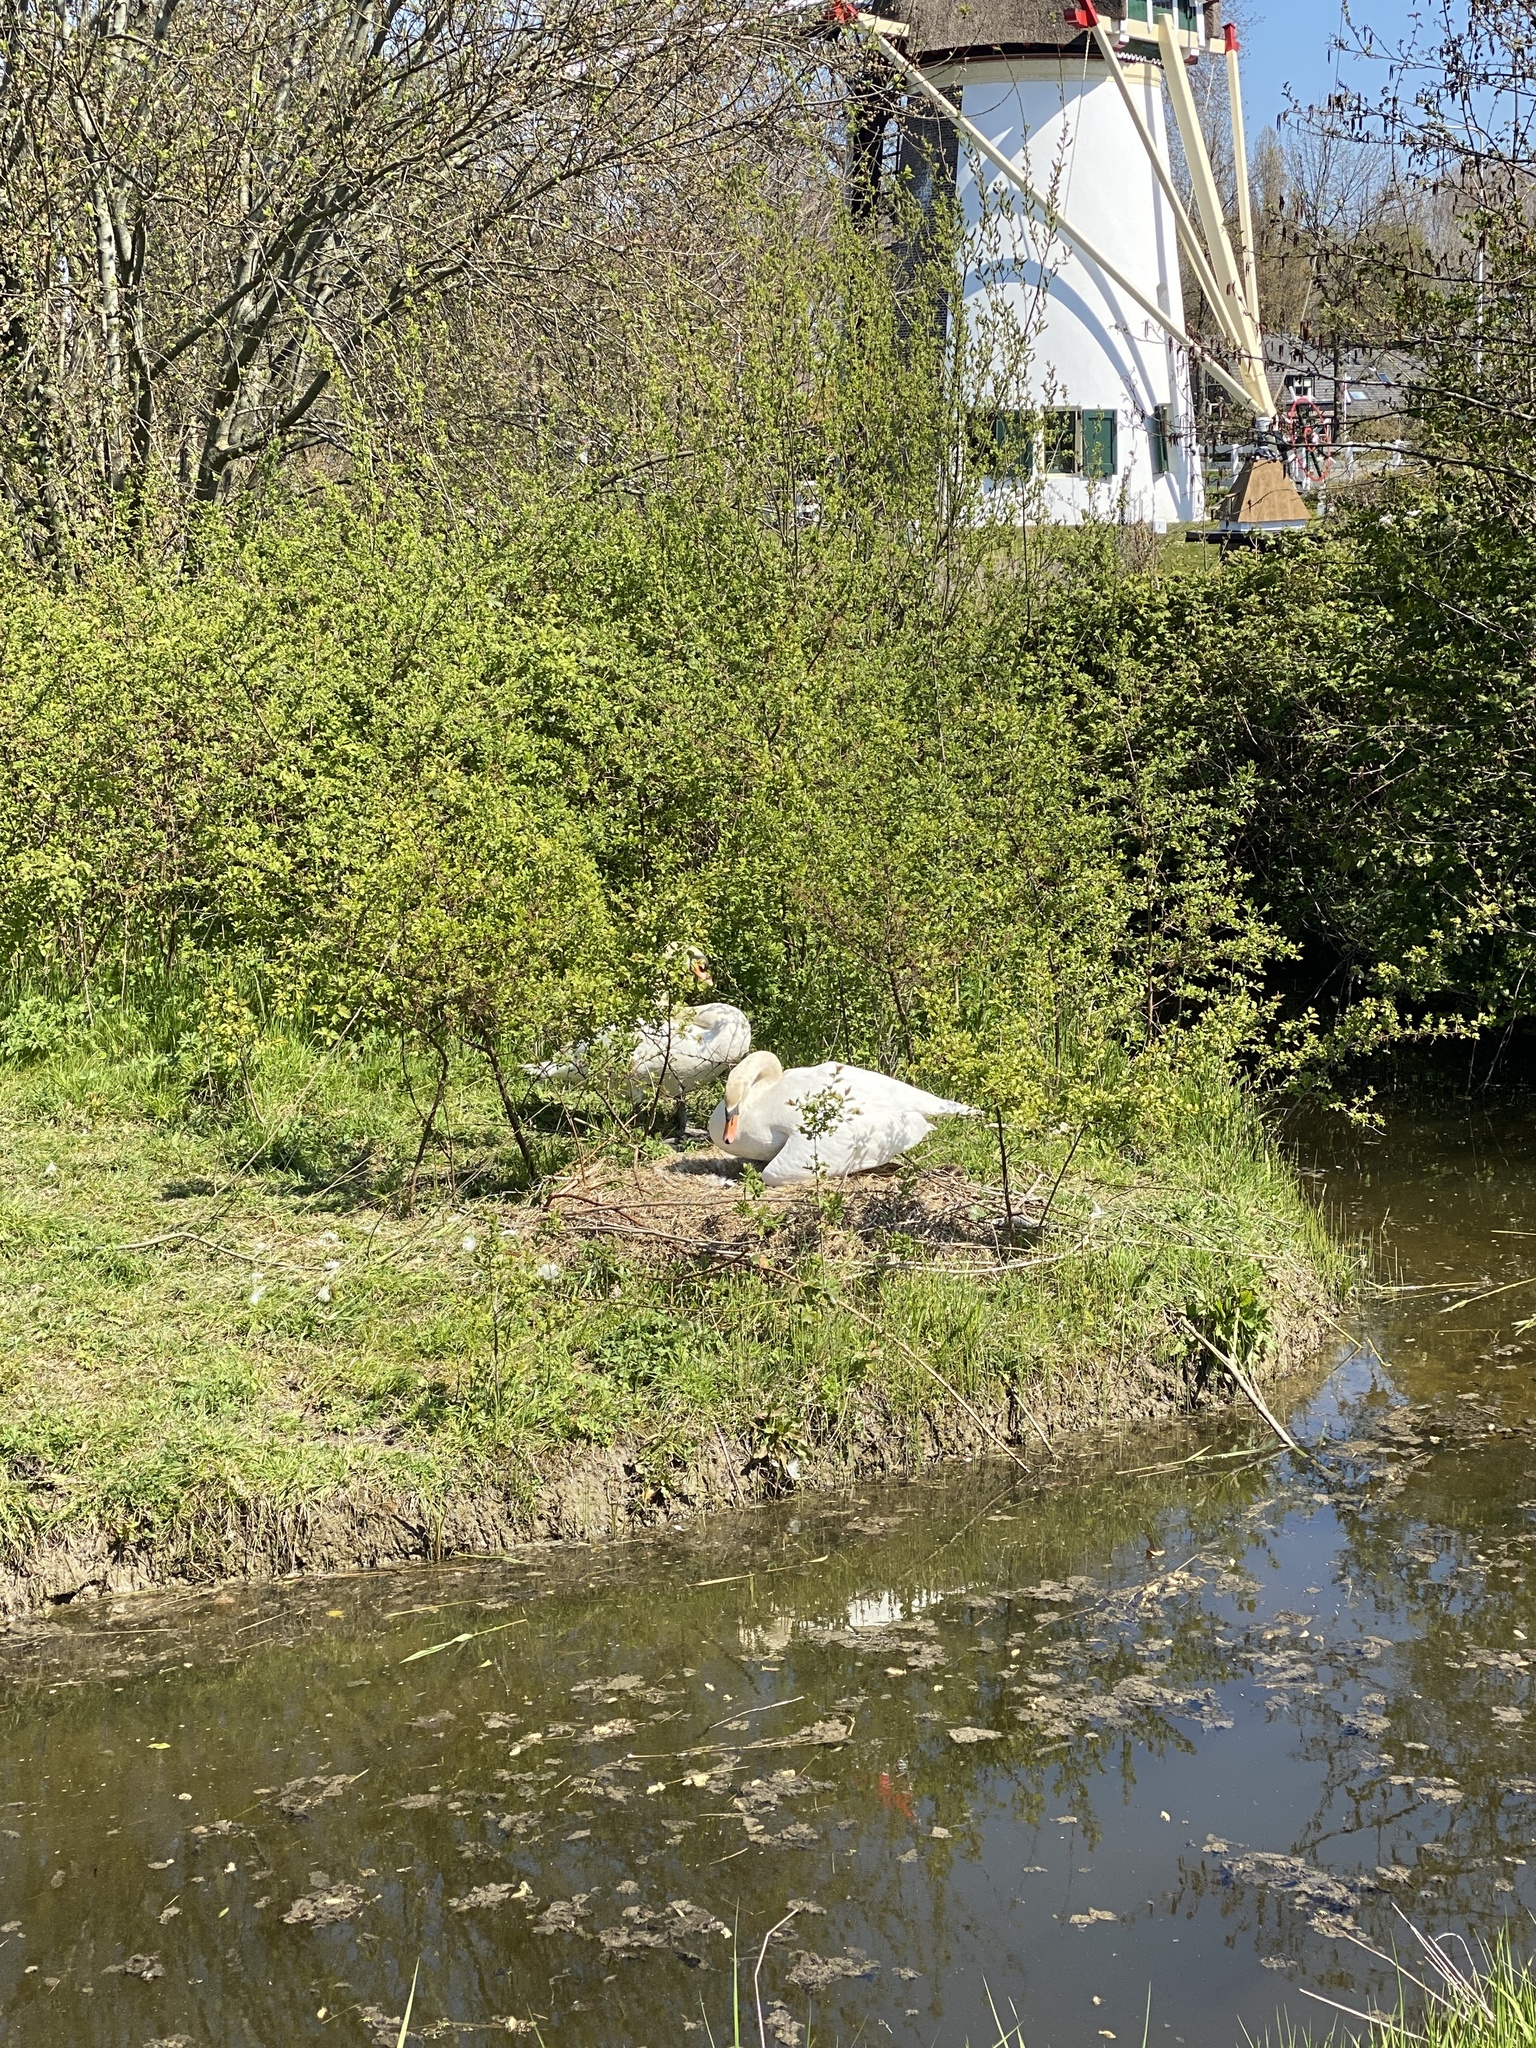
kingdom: Animalia
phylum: Chordata
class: Aves
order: Anseriformes
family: Anatidae
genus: Cygnus
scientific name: Cygnus olor
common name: Mute swan
